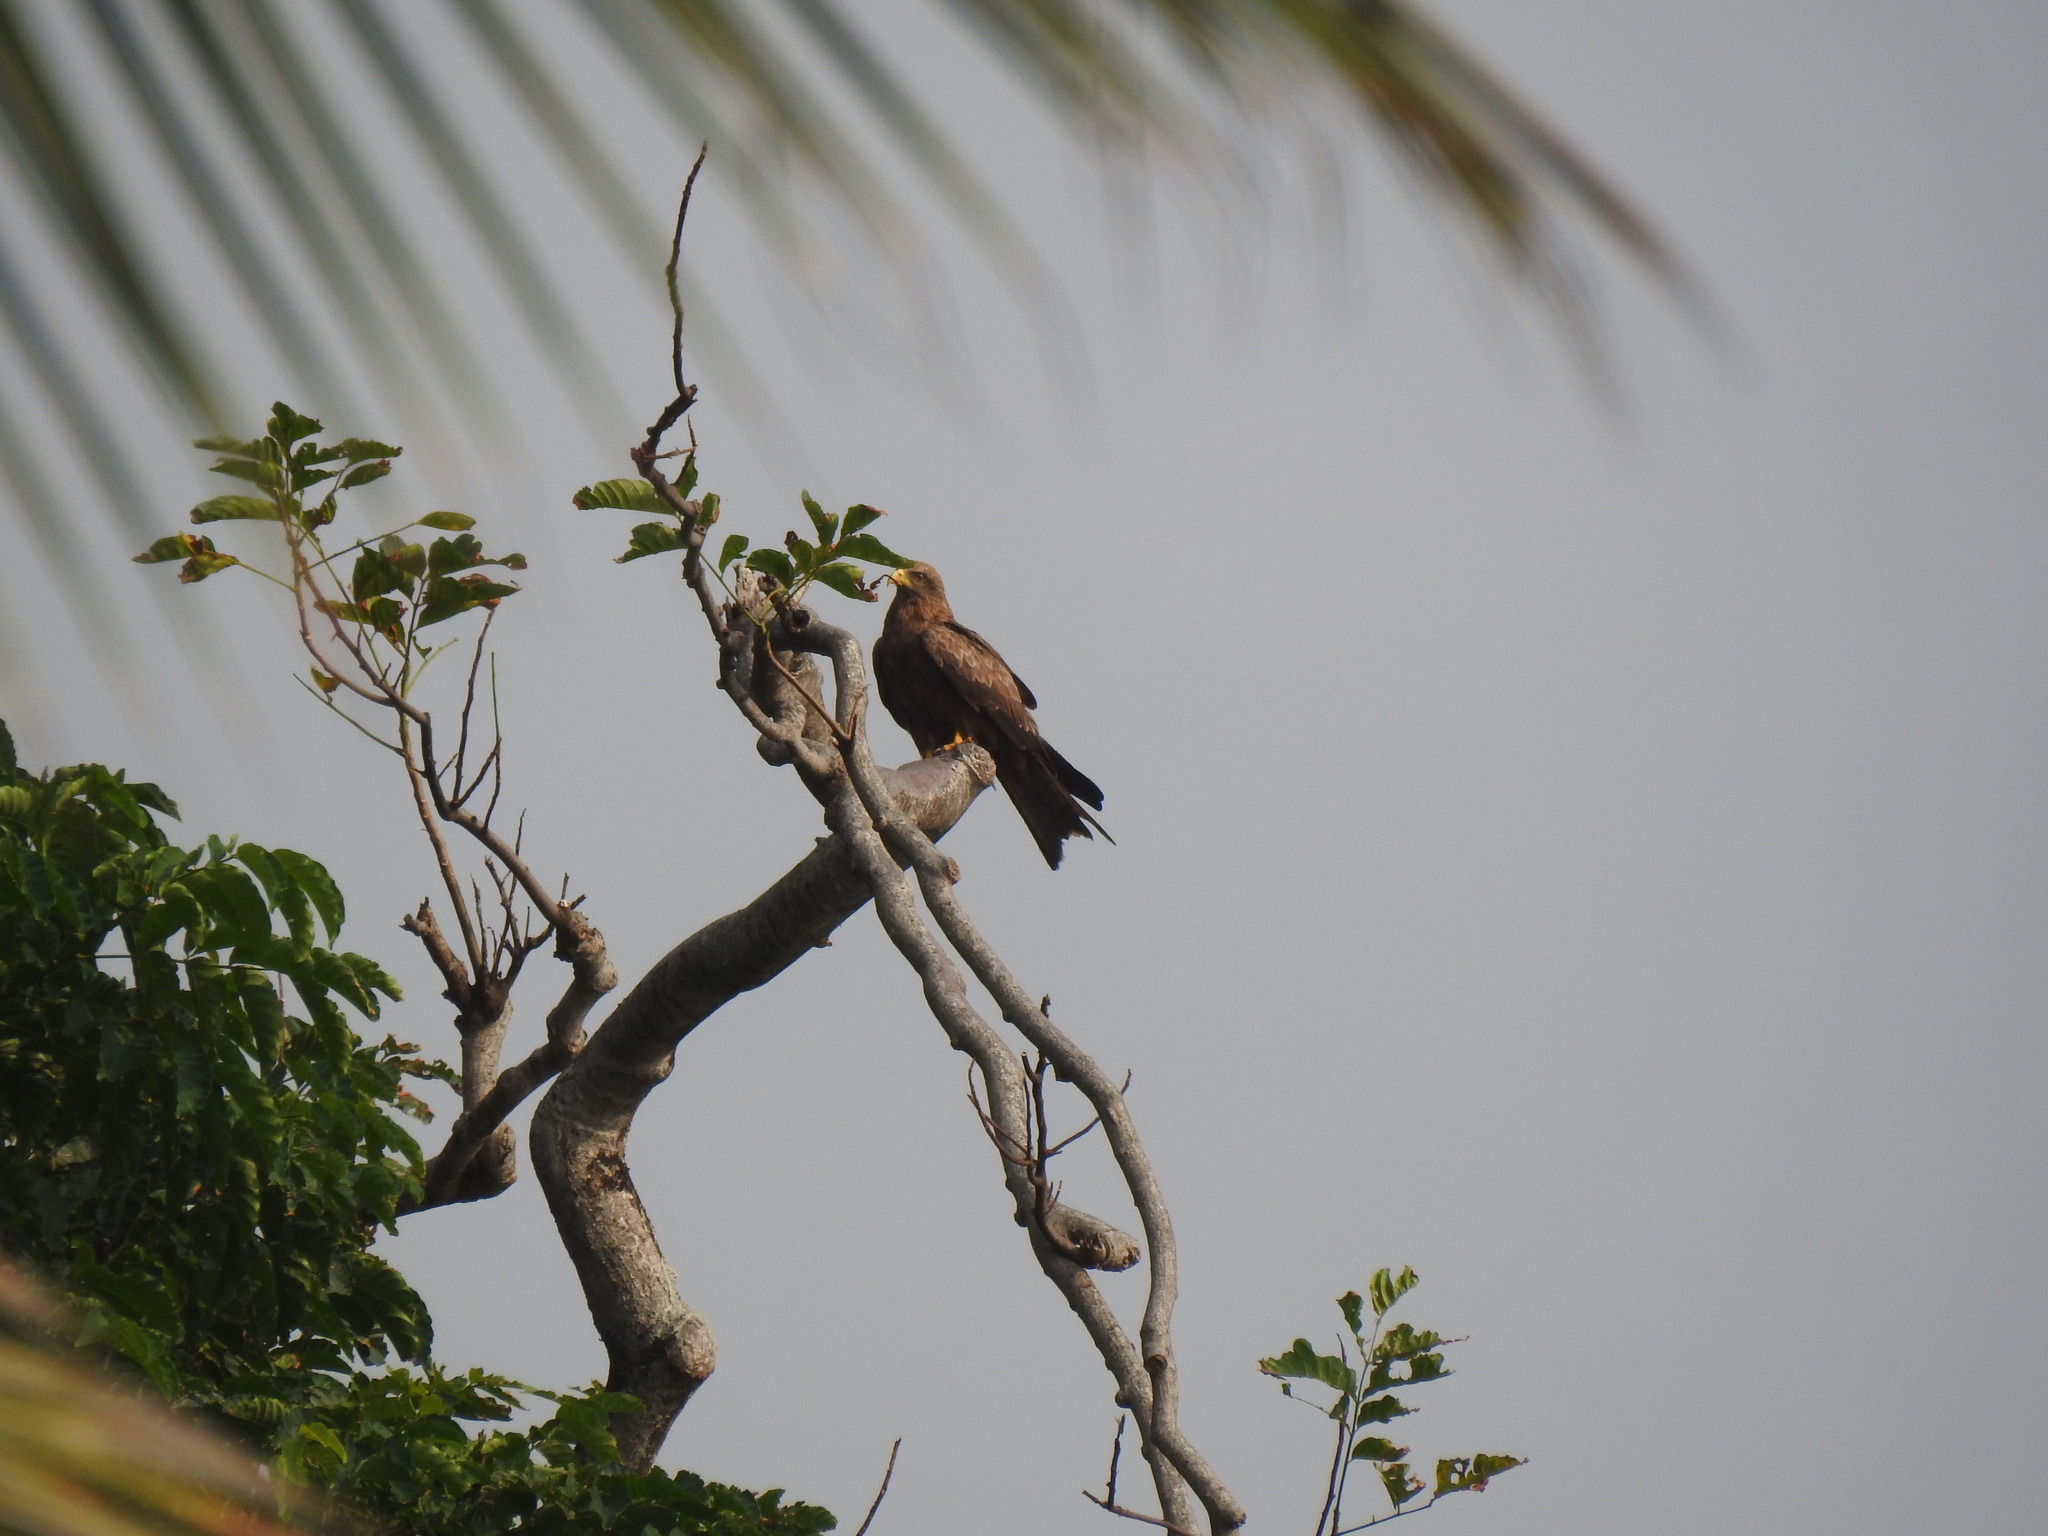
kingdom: Animalia
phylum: Chordata
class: Aves
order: Accipitriformes
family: Accipitridae
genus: Milvus
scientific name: Milvus migrans
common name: Black kite
